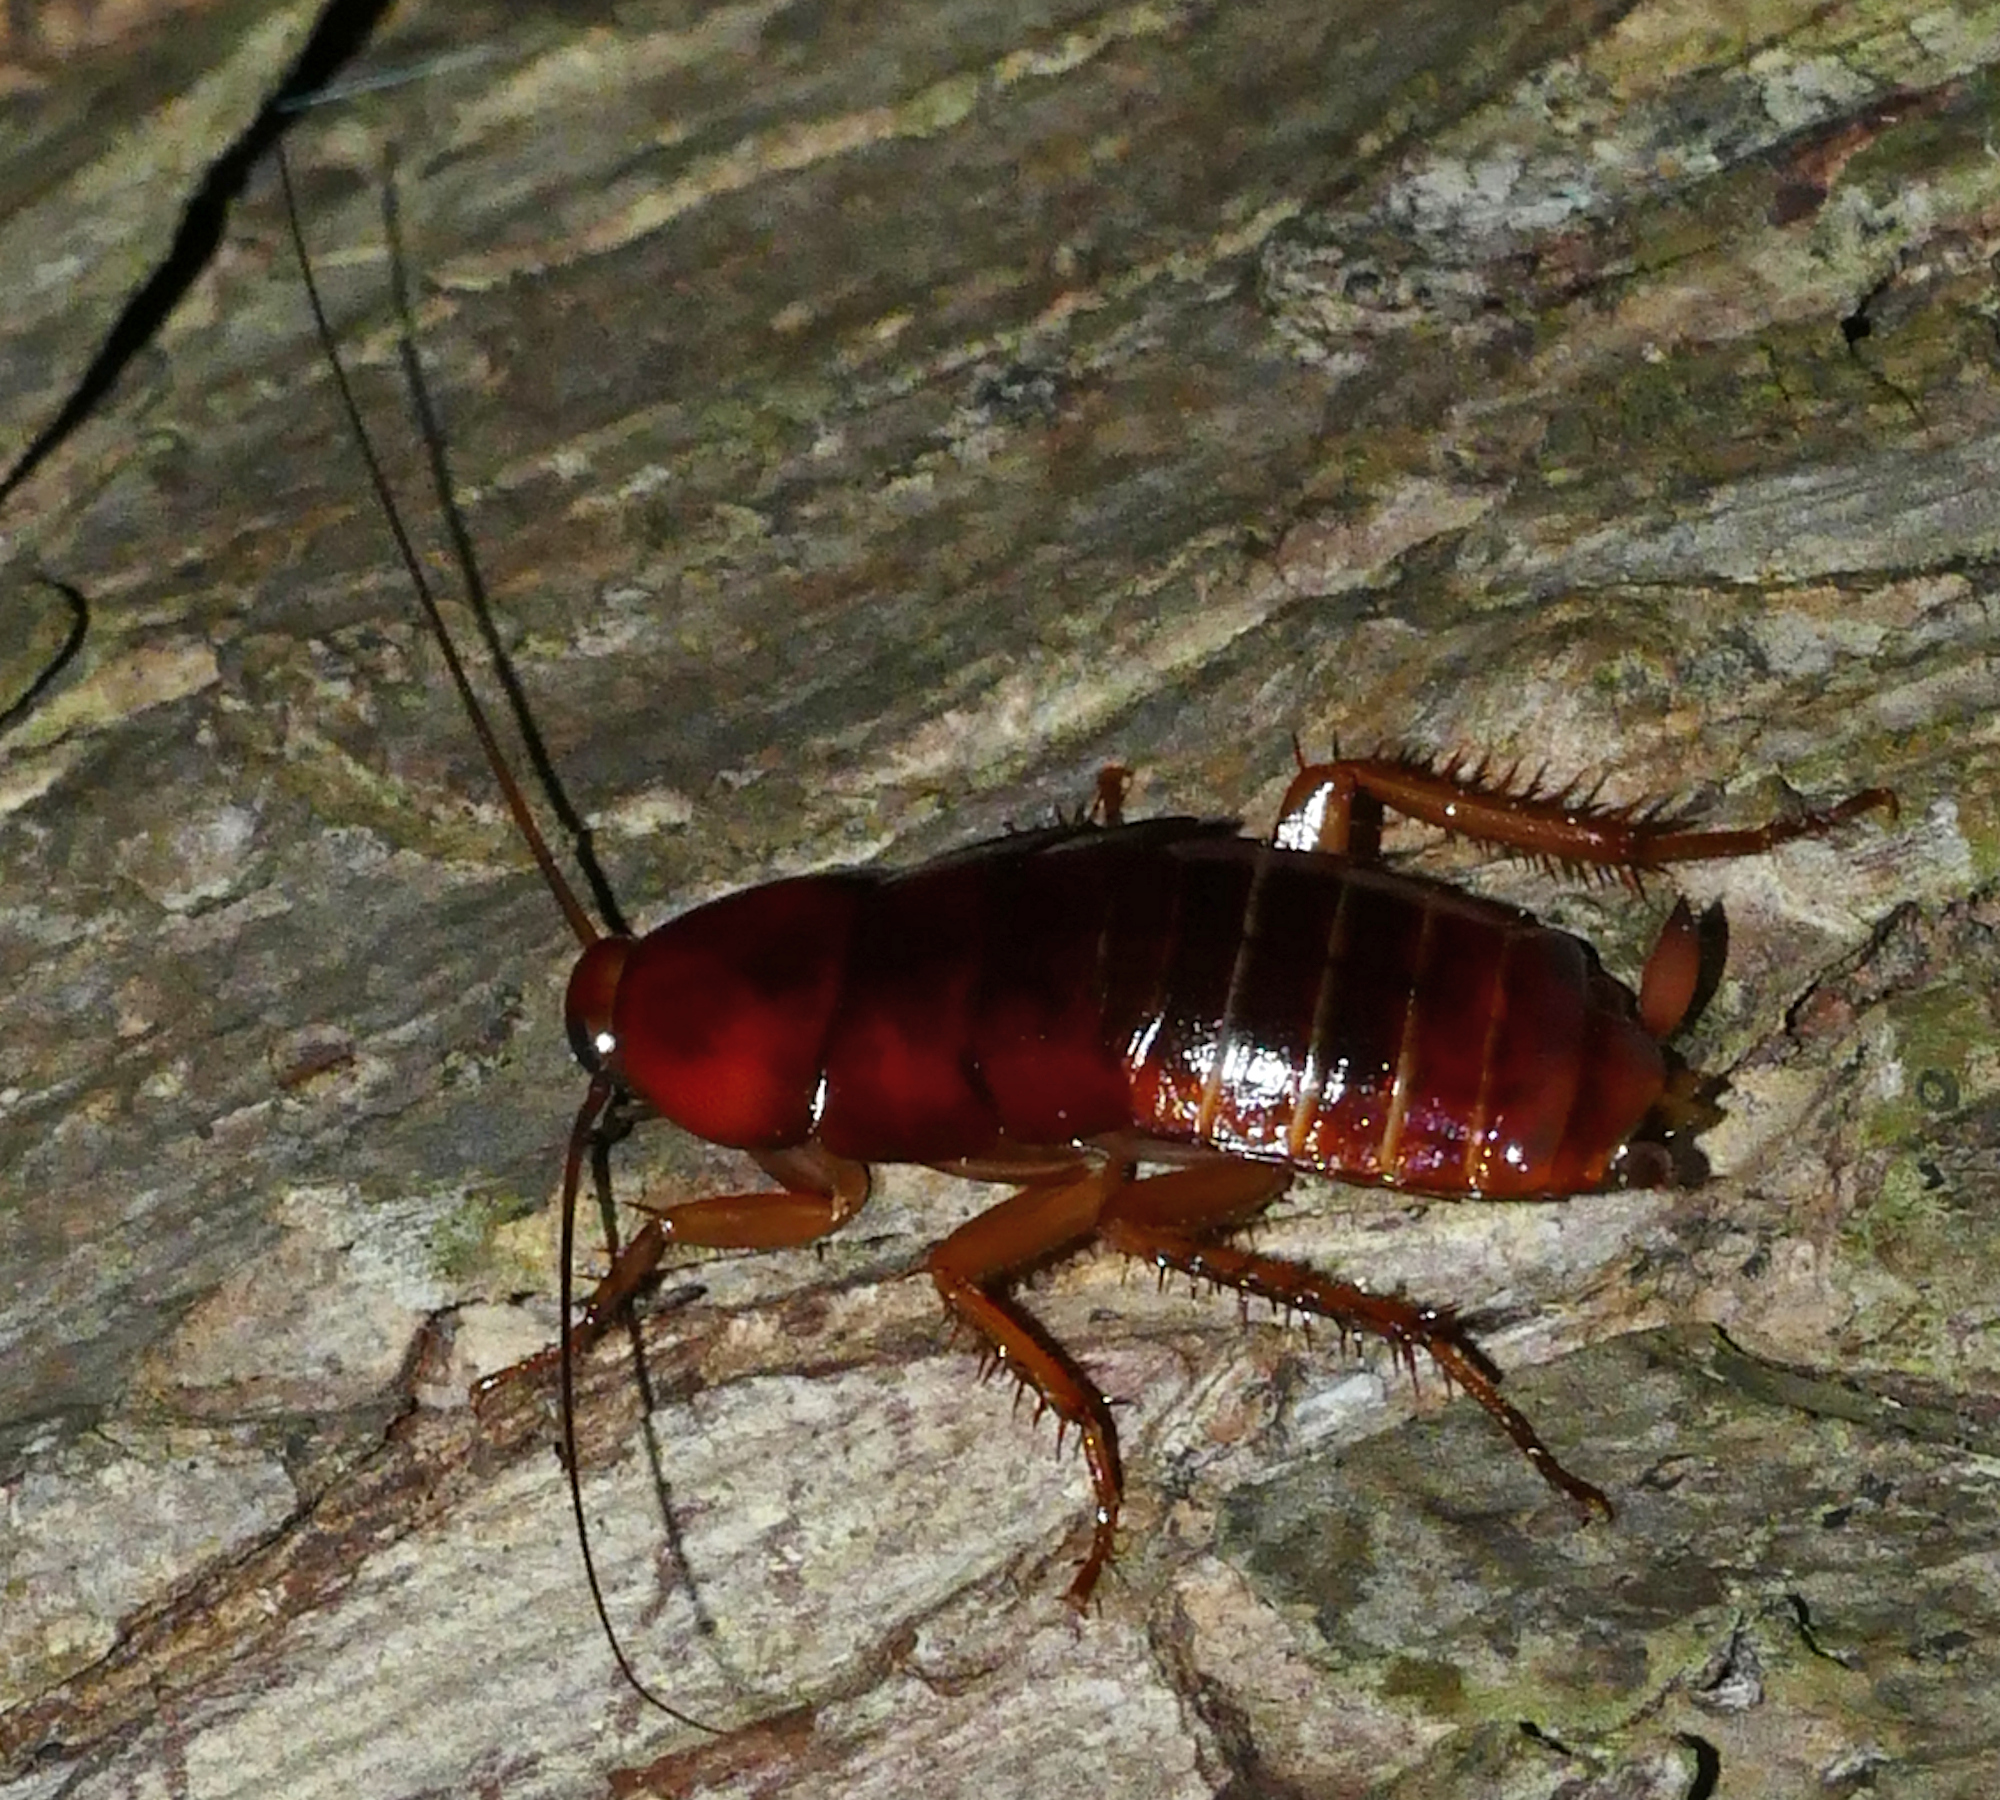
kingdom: Animalia
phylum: Arthropoda
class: Insecta
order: Blattodea
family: Blattidae
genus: Periplaneta
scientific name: Periplaneta fuliginosa
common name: Smokeybrown cockroad
